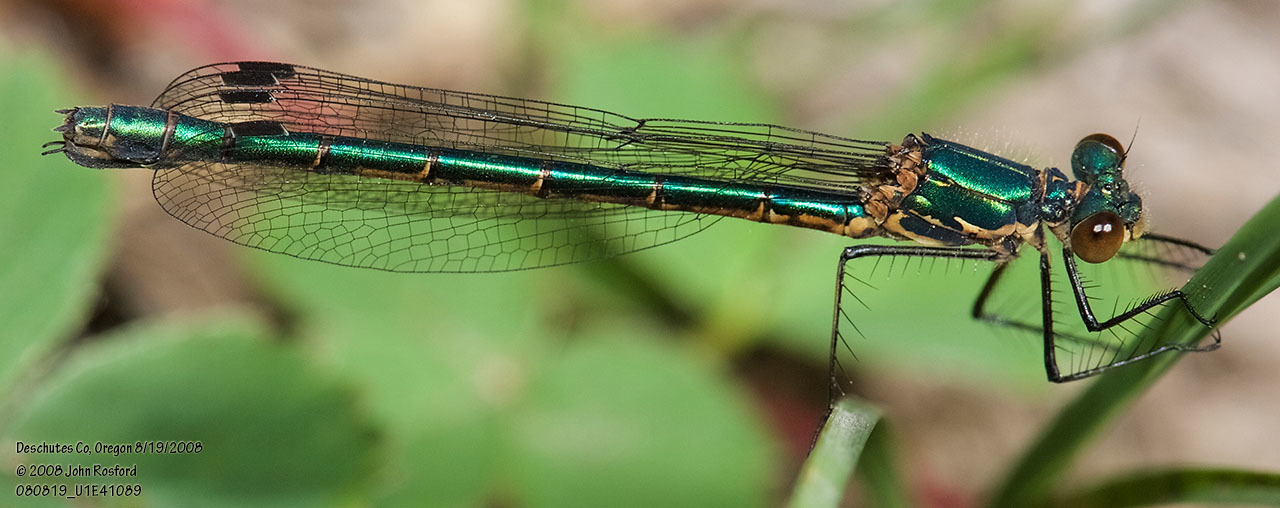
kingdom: Animalia
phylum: Arthropoda
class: Insecta
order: Odonata
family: Lestidae
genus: Lestes
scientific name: Lestes dryas
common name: Scarce emerald damselfly
